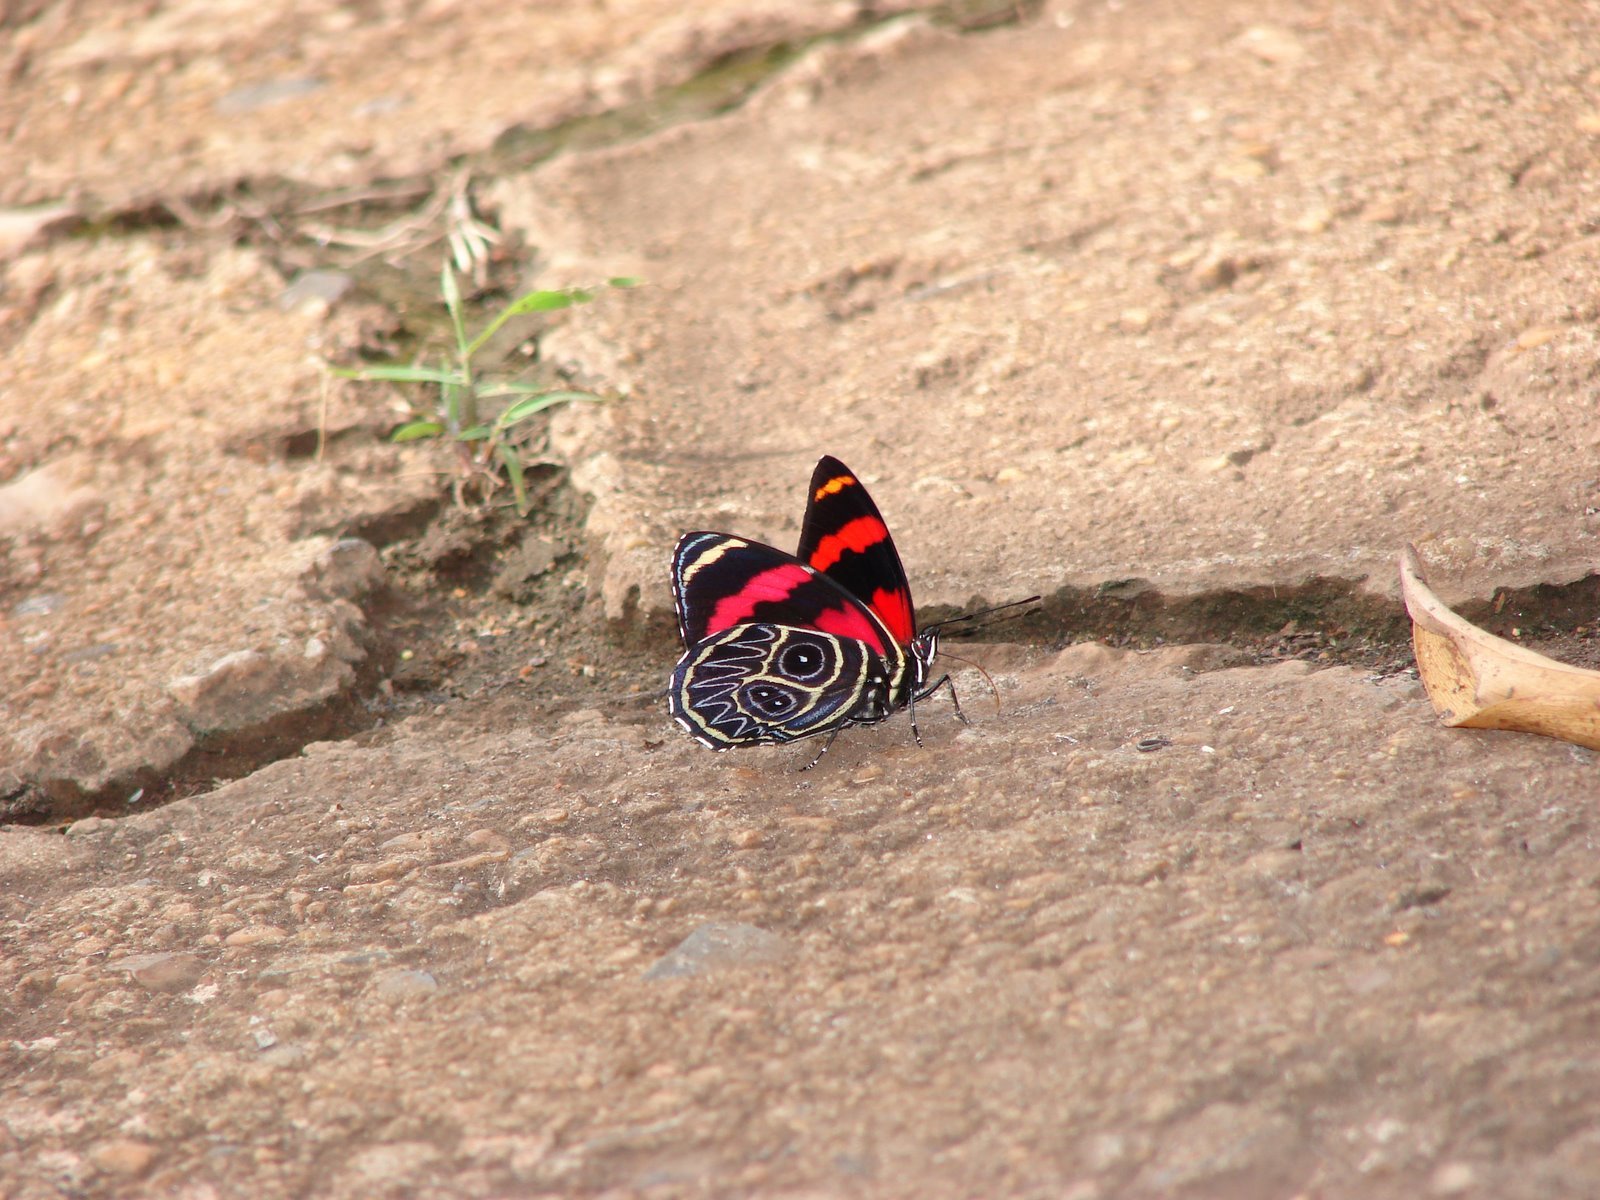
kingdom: Animalia
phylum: Arthropoda
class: Insecta
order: Lepidoptera
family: Nymphalidae
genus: Catagramma
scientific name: Catagramma Callicore sorana
